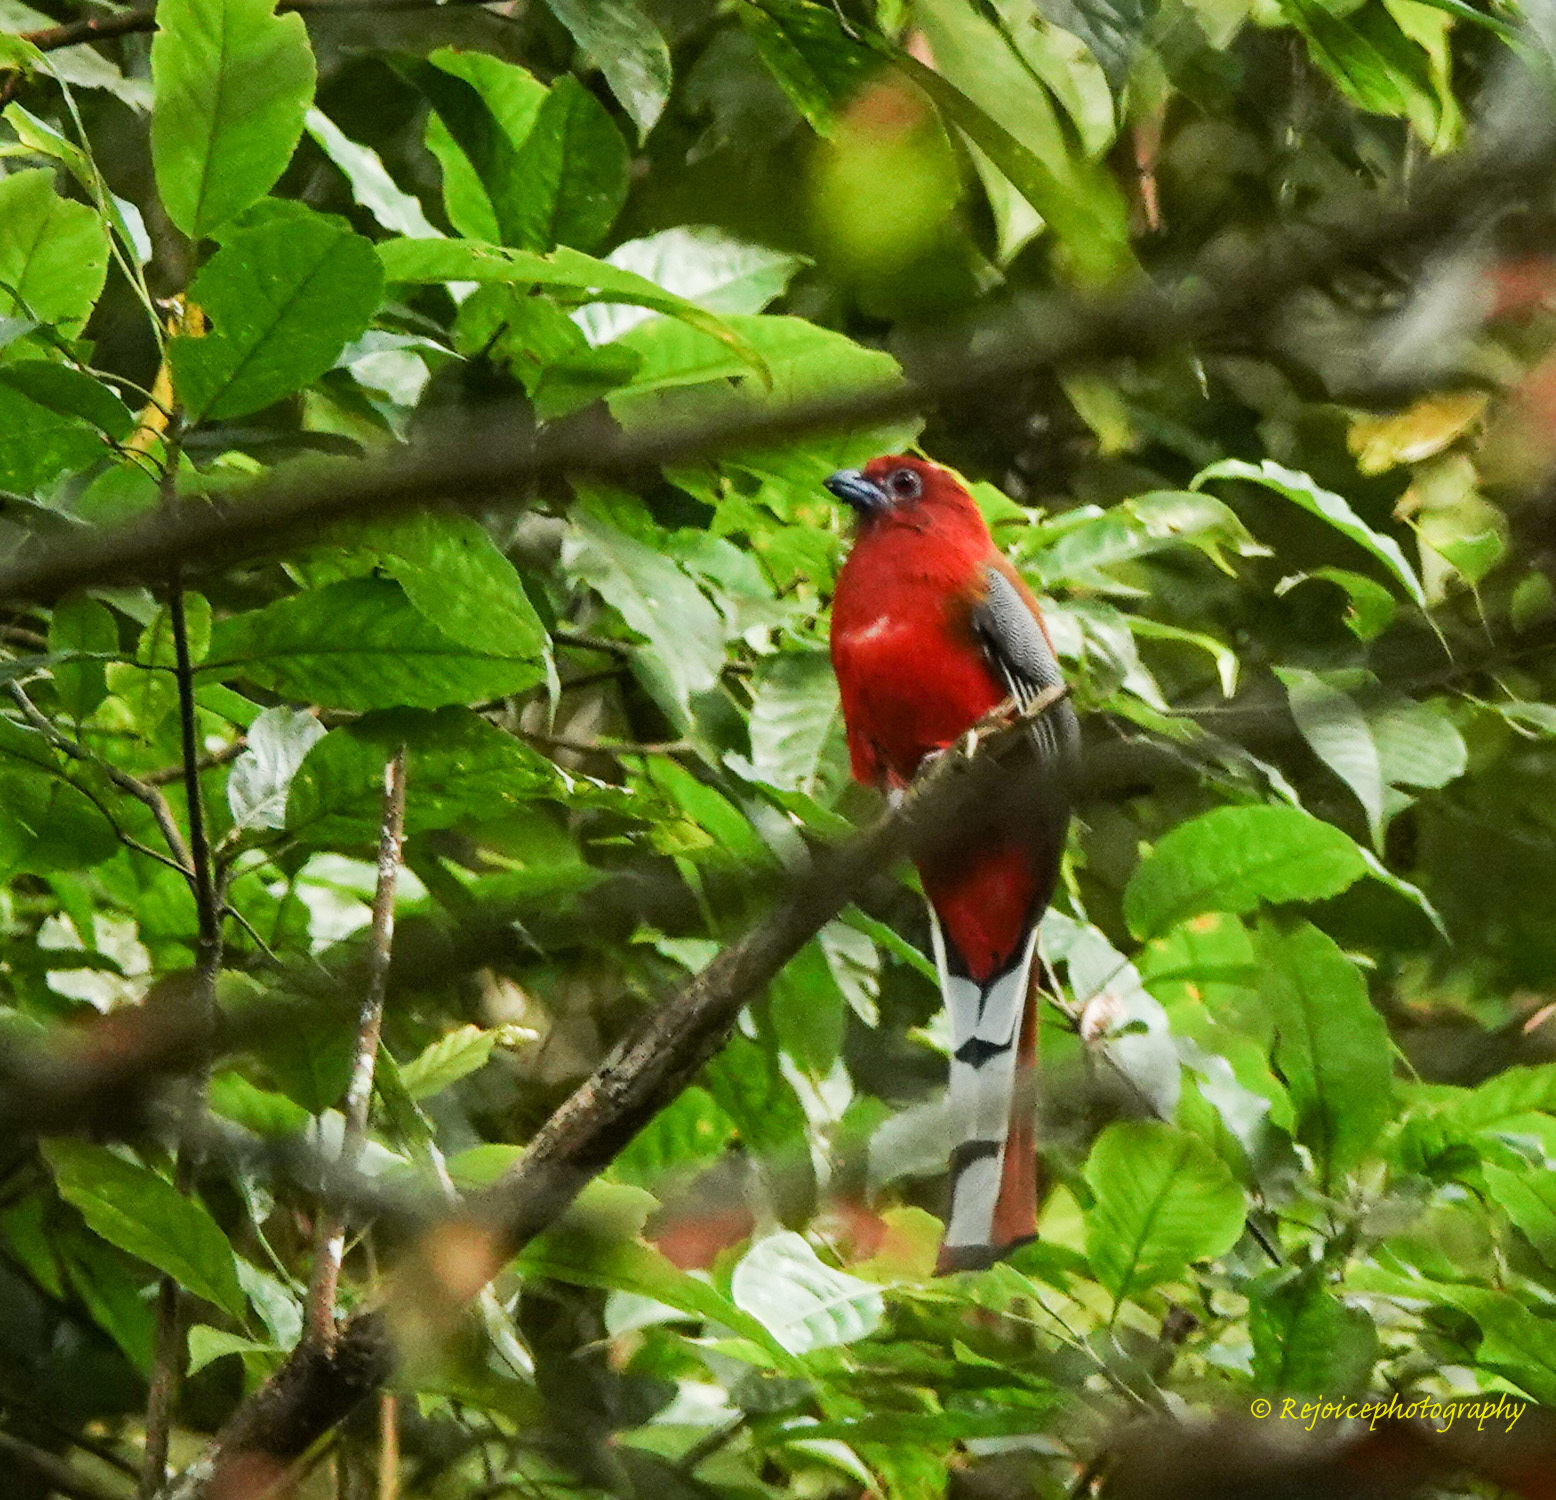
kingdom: Animalia
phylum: Chordata
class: Aves
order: Trogoniformes
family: Trogonidae
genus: Harpactes
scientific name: Harpactes erythrocephalus
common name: Red-headed trogon
